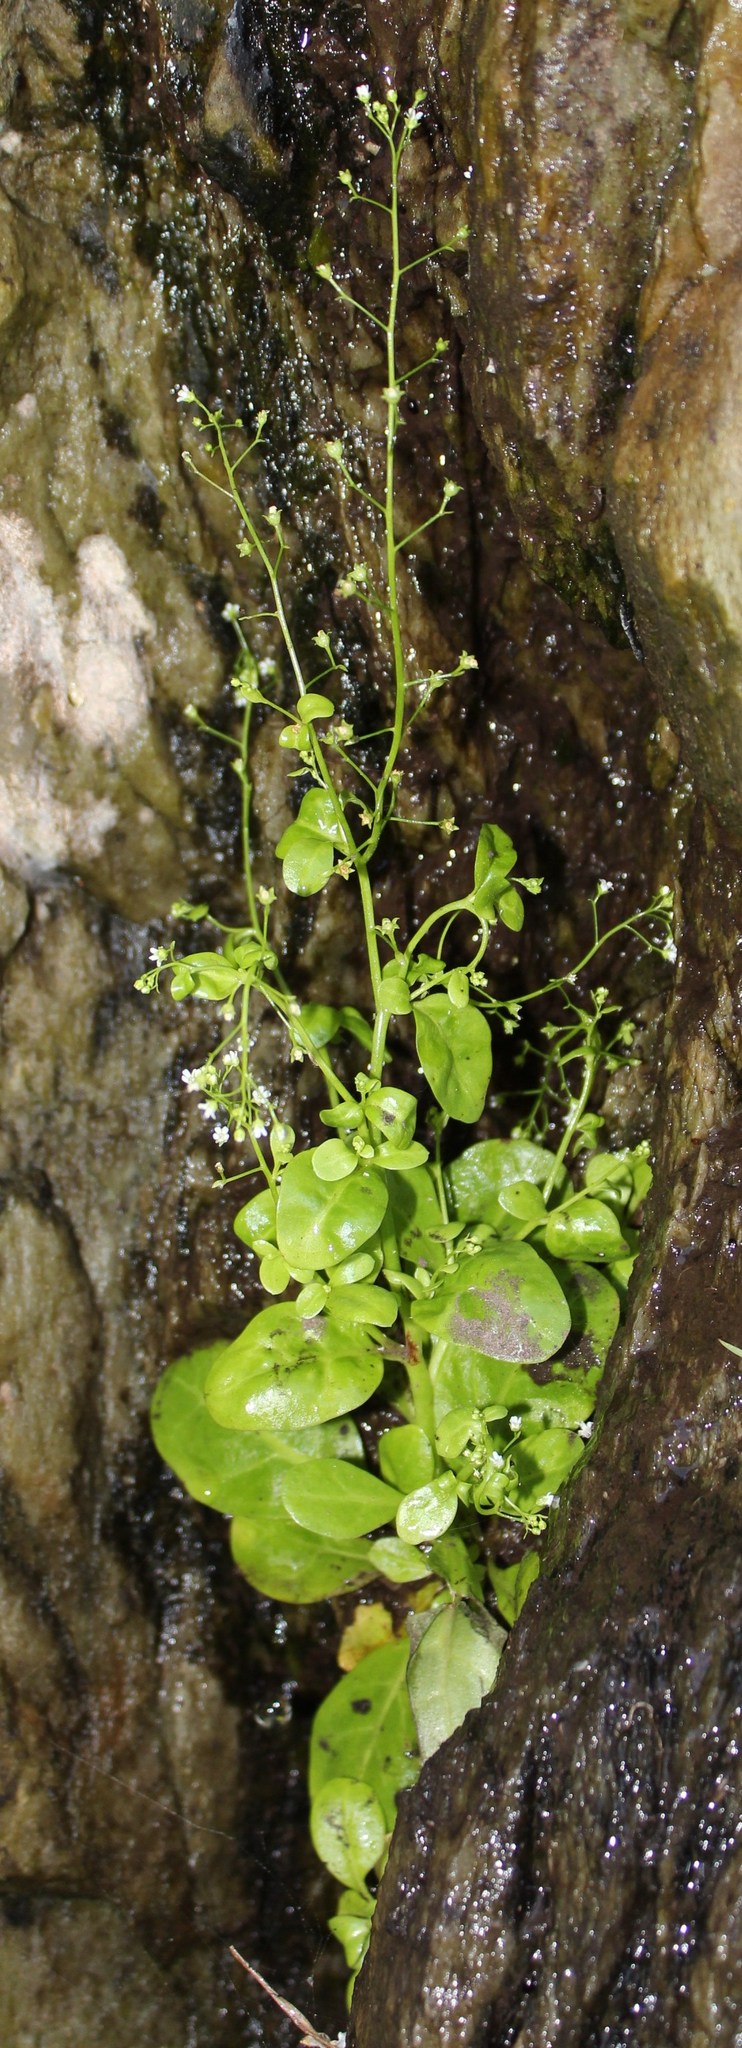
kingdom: Plantae
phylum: Tracheophyta
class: Magnoliopsida
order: Ericales
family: Primulaceae
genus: Samolus
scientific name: Samolus valerandi
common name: Brookweed
